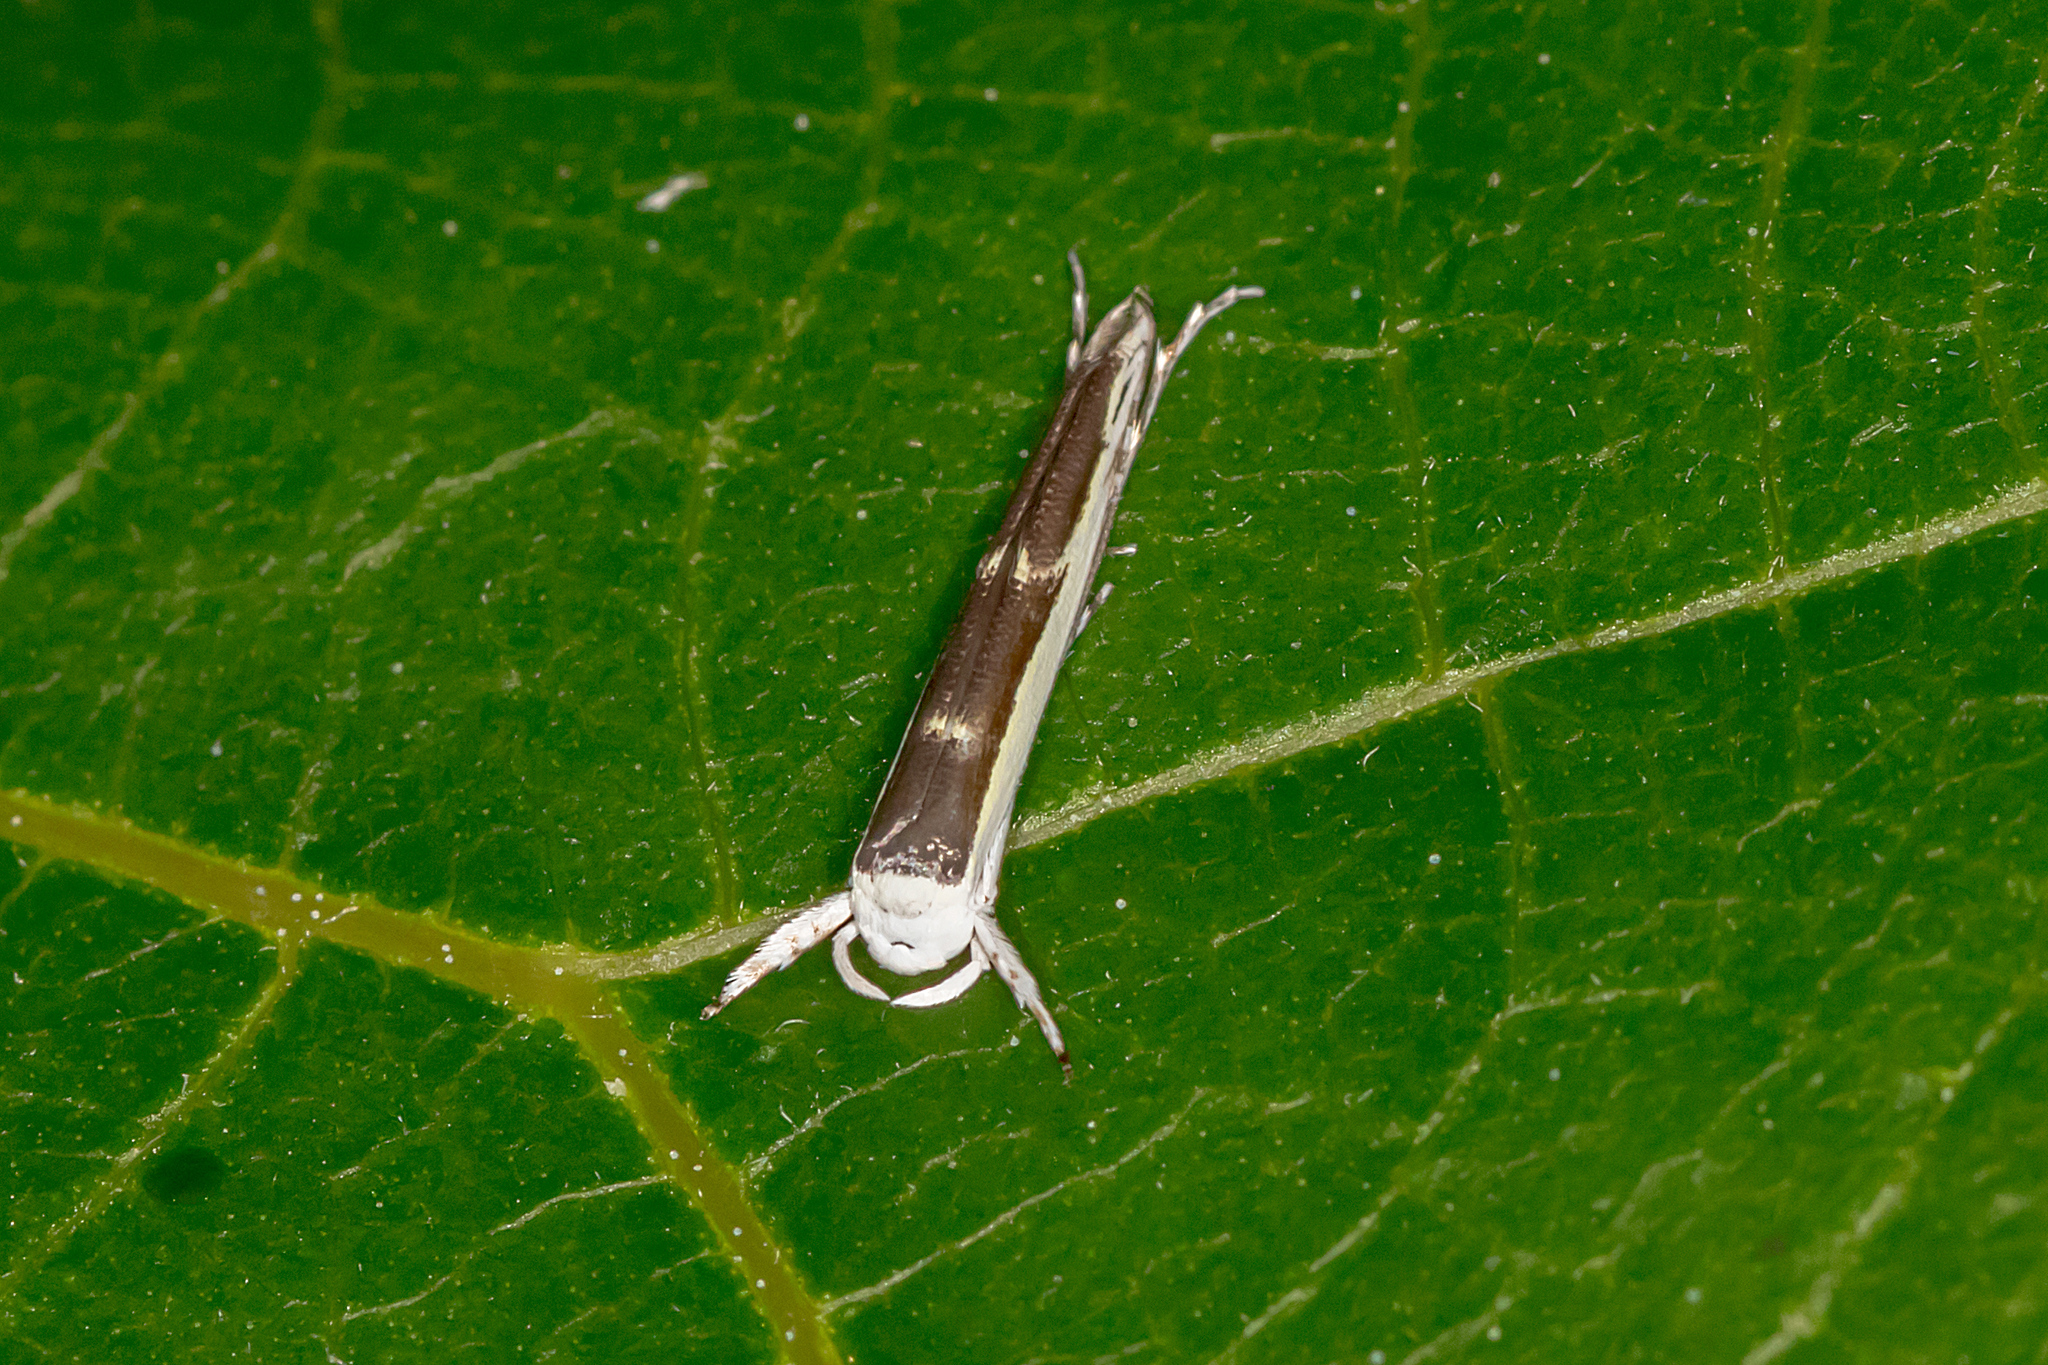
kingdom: Animalia
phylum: Arthropoda
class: Insecta
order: Lepidoptera
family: Roeslerstammiidae
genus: Vanicela
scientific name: Vanicela xenadelpha
